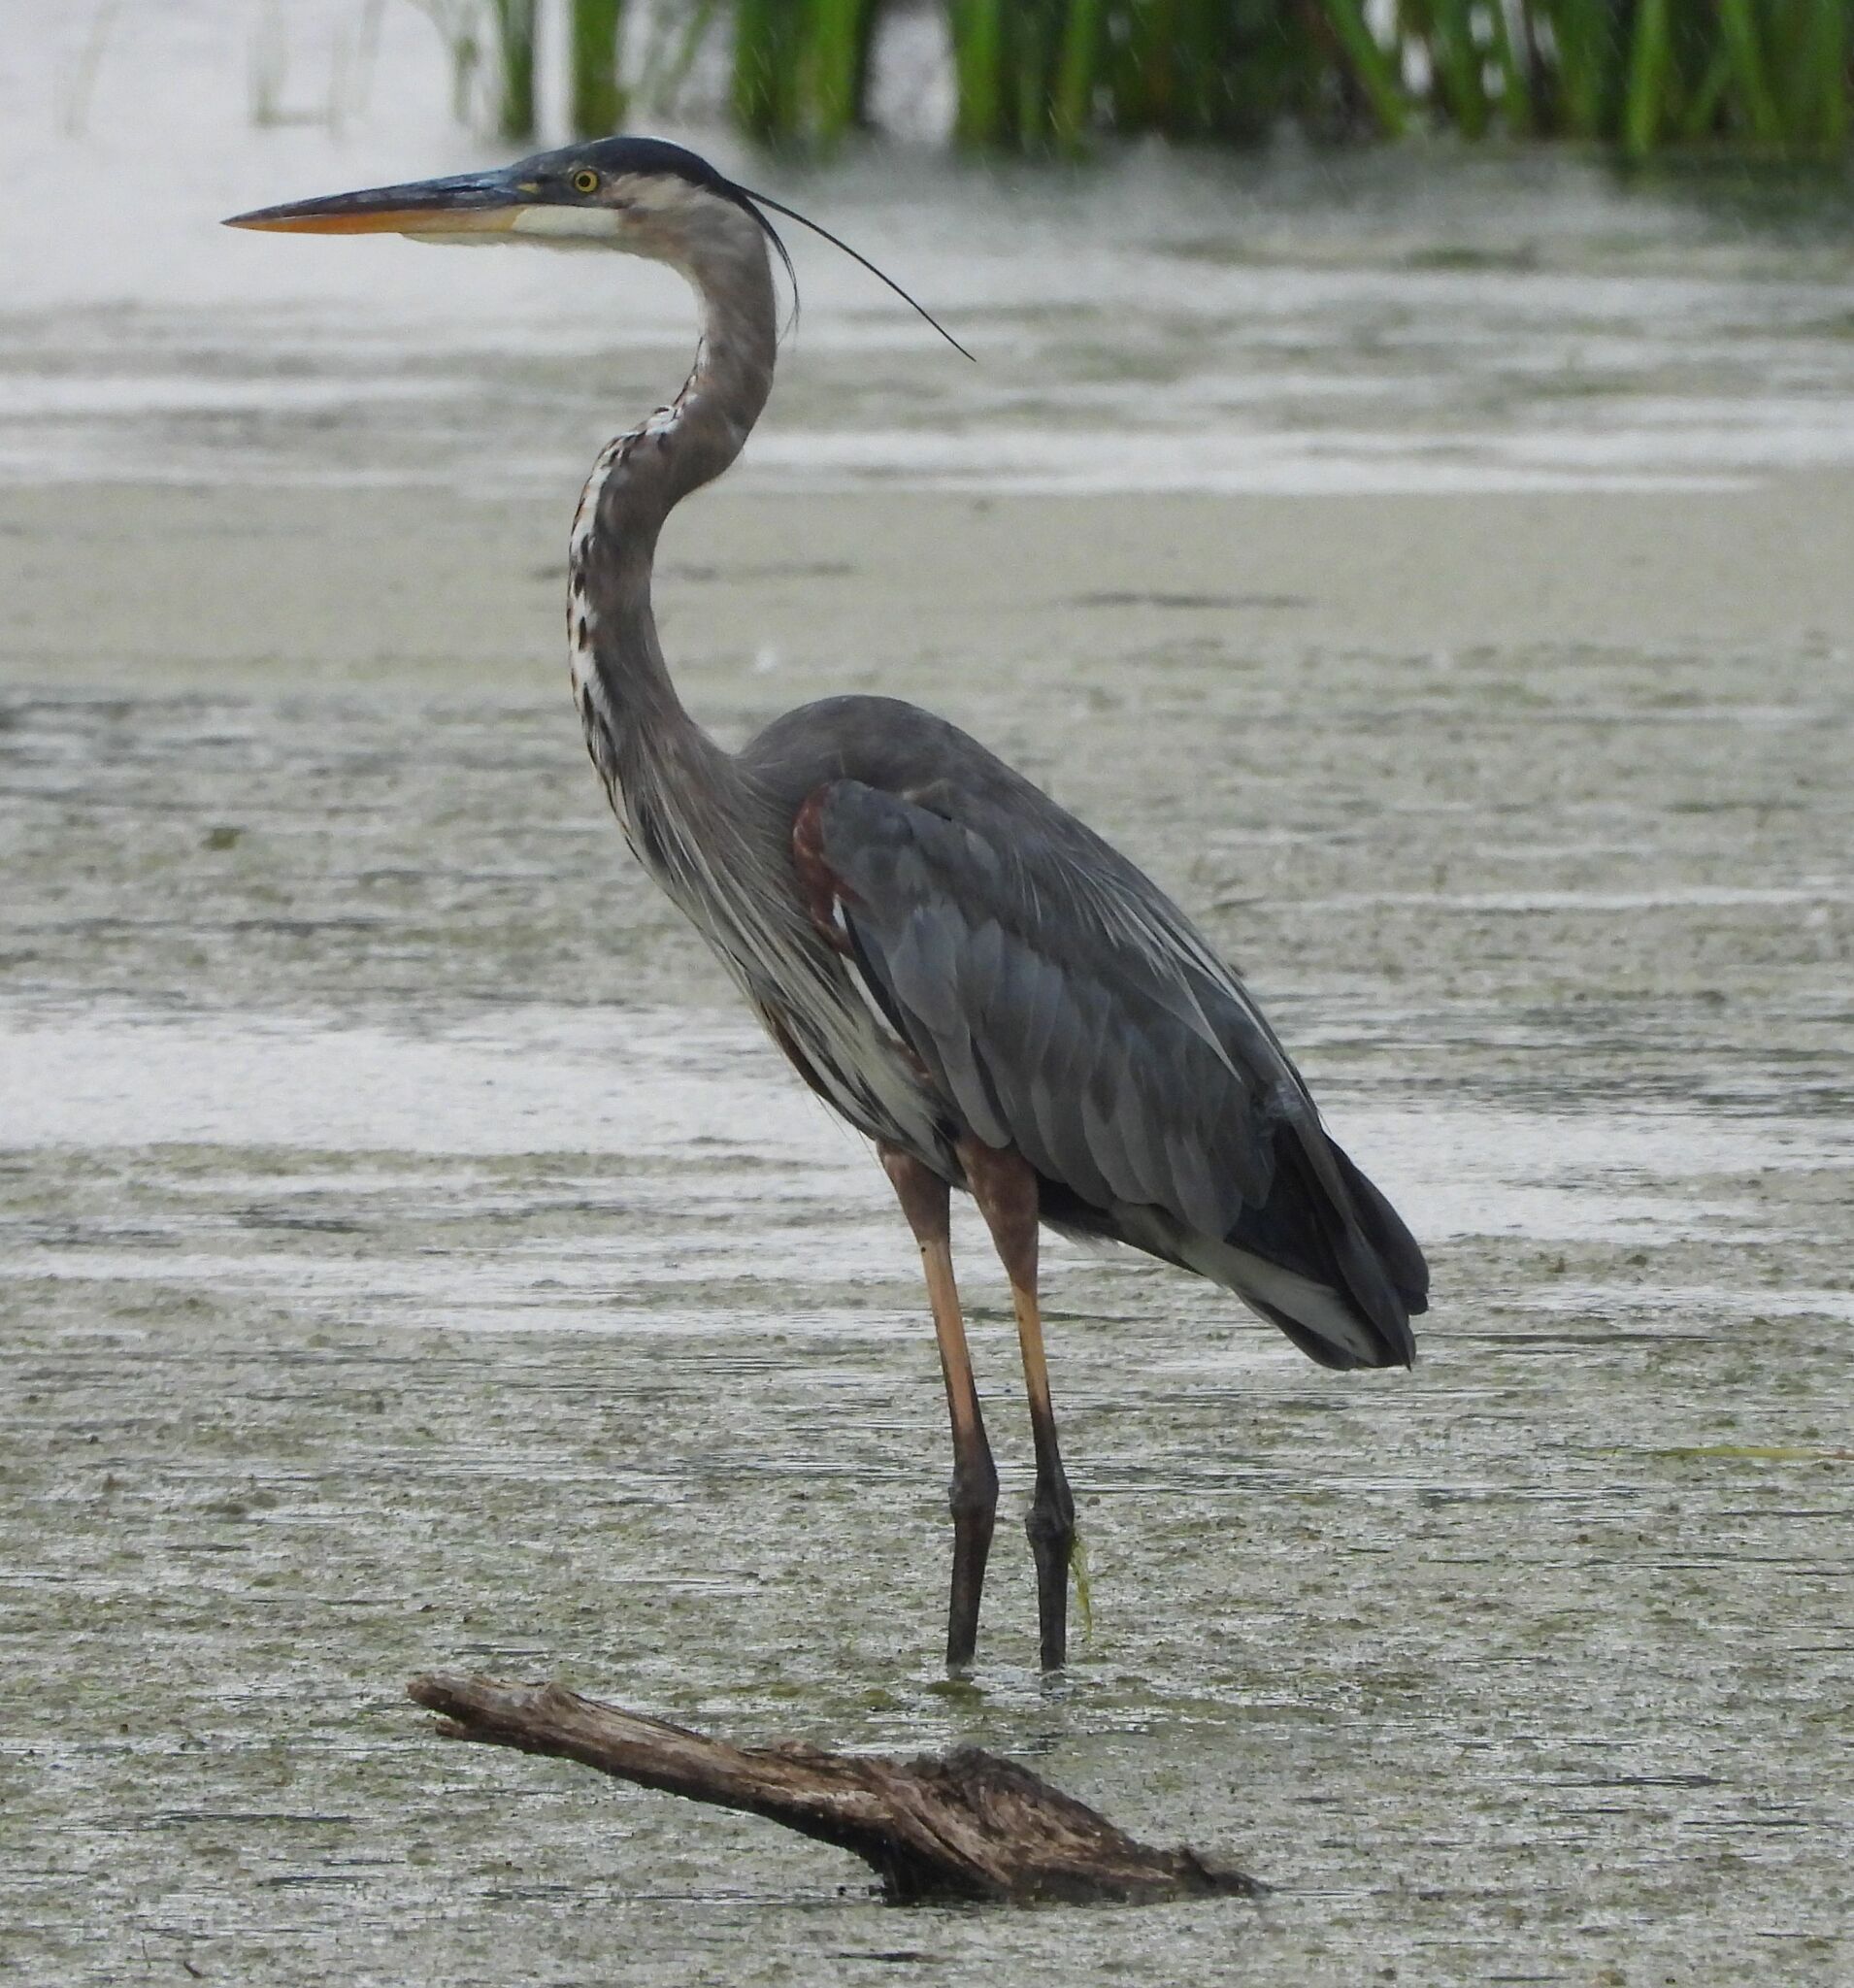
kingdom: Animalia
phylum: Chordata
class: Aves
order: Pelecaniformes
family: Ardeidae
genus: Ardea
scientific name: Ardea herodias
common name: Great blue heron
